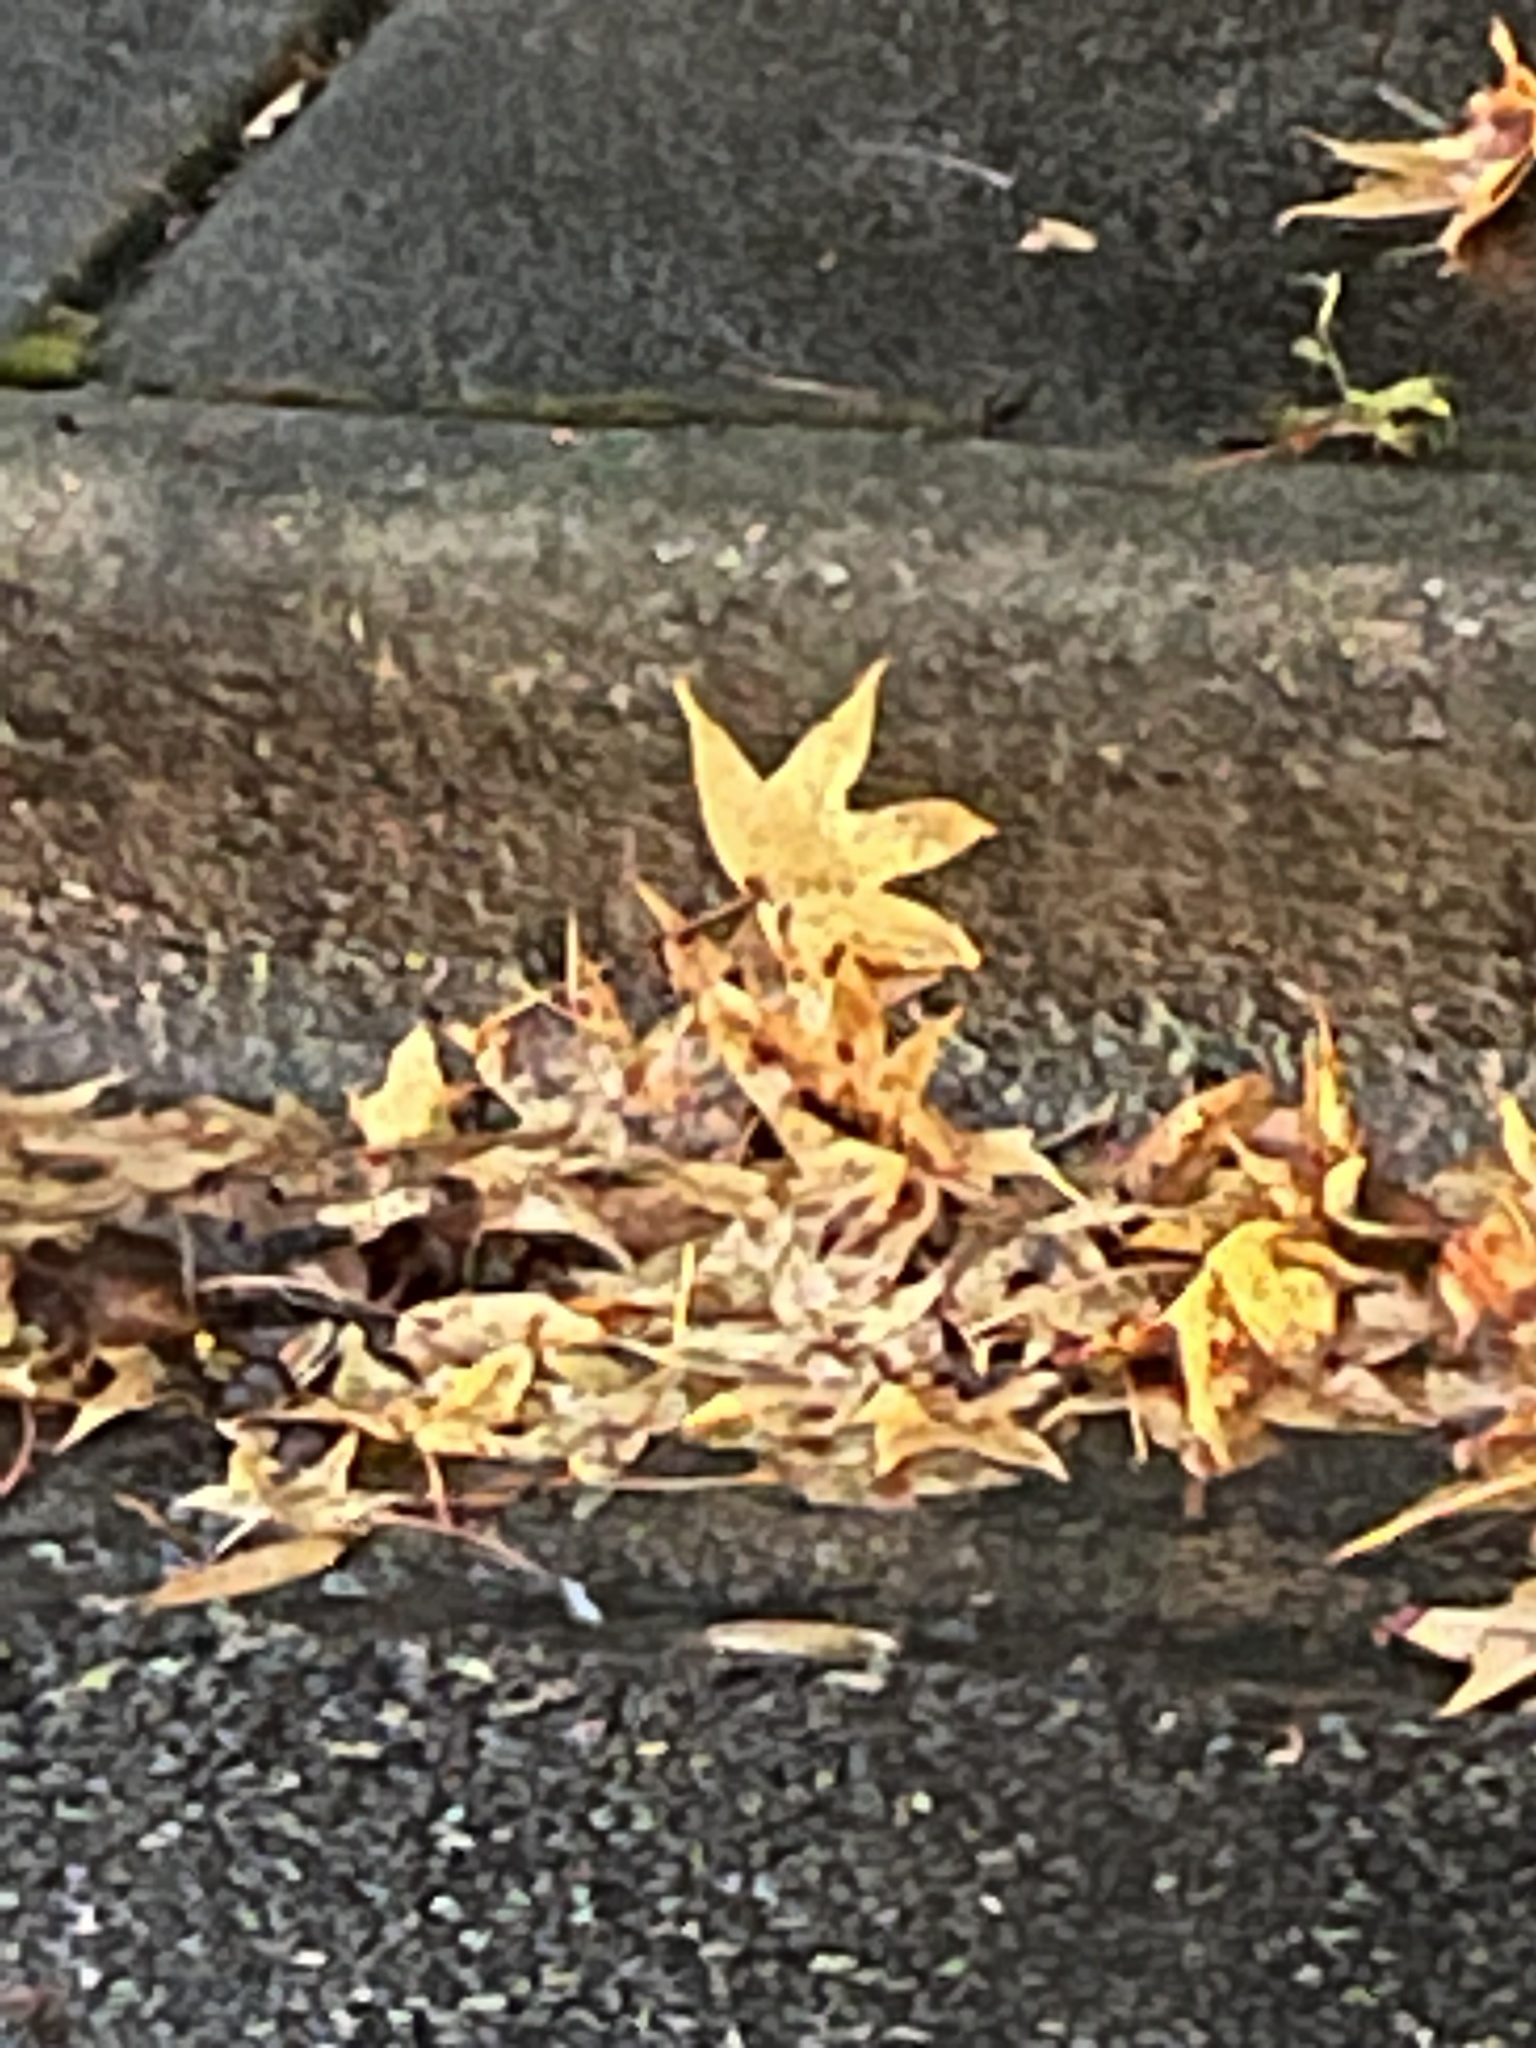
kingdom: Plantae
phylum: Tracheophyta
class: Magnoliopsida
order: Saxifragales
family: Altingiaceae
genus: Liquidambar
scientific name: Liquidambar styraciflua
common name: Sweet gum
